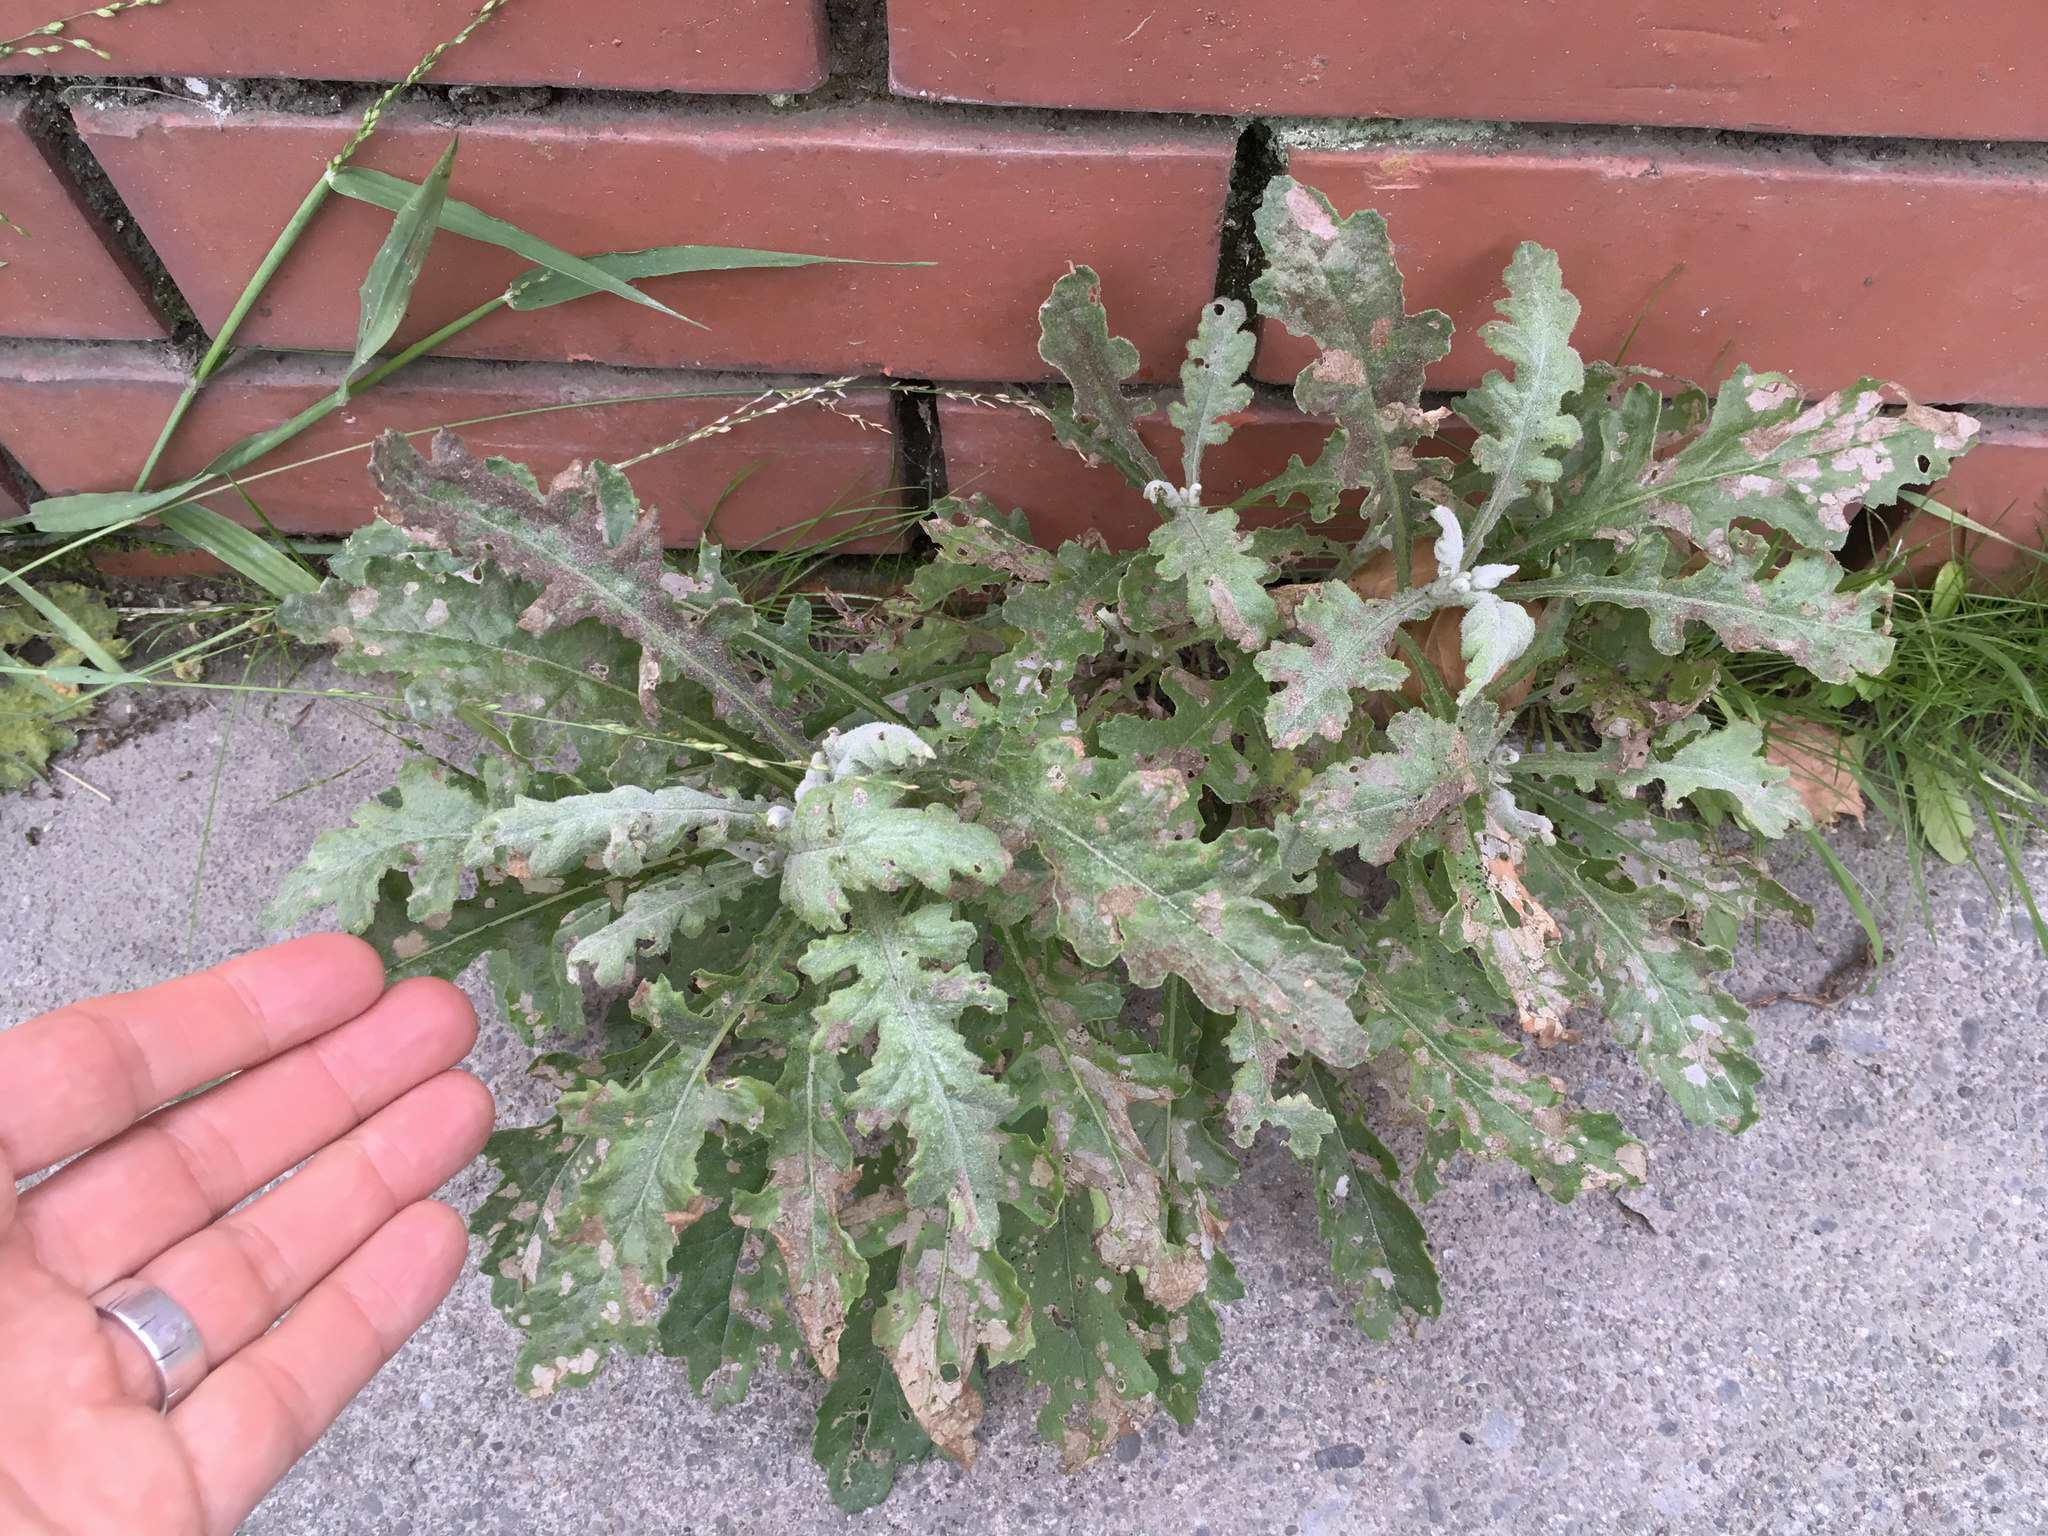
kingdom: Plantae
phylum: Tracheophyta
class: Magnoliopsida
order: Asterales
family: Asteraceae
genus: Senecio
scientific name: Senecio glomeratus
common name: Cutleaf burnweed
